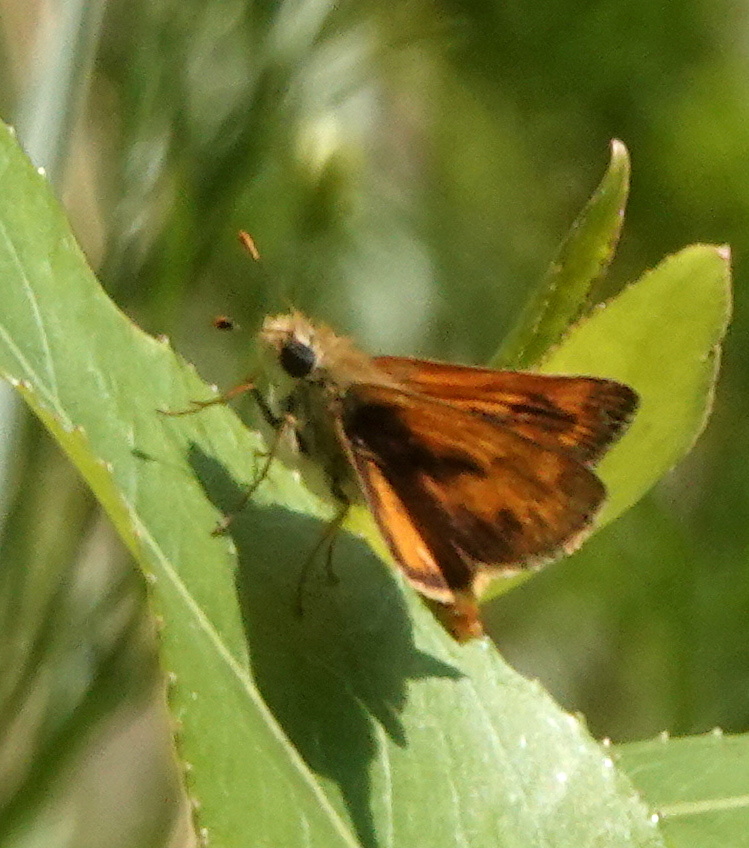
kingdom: Animalia
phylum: Arthropoda
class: Insecta
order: Lepidoptera
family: Hesperiidae
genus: Ochlodes
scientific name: Ochlodes sylvanoides
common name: Woodland skipper
